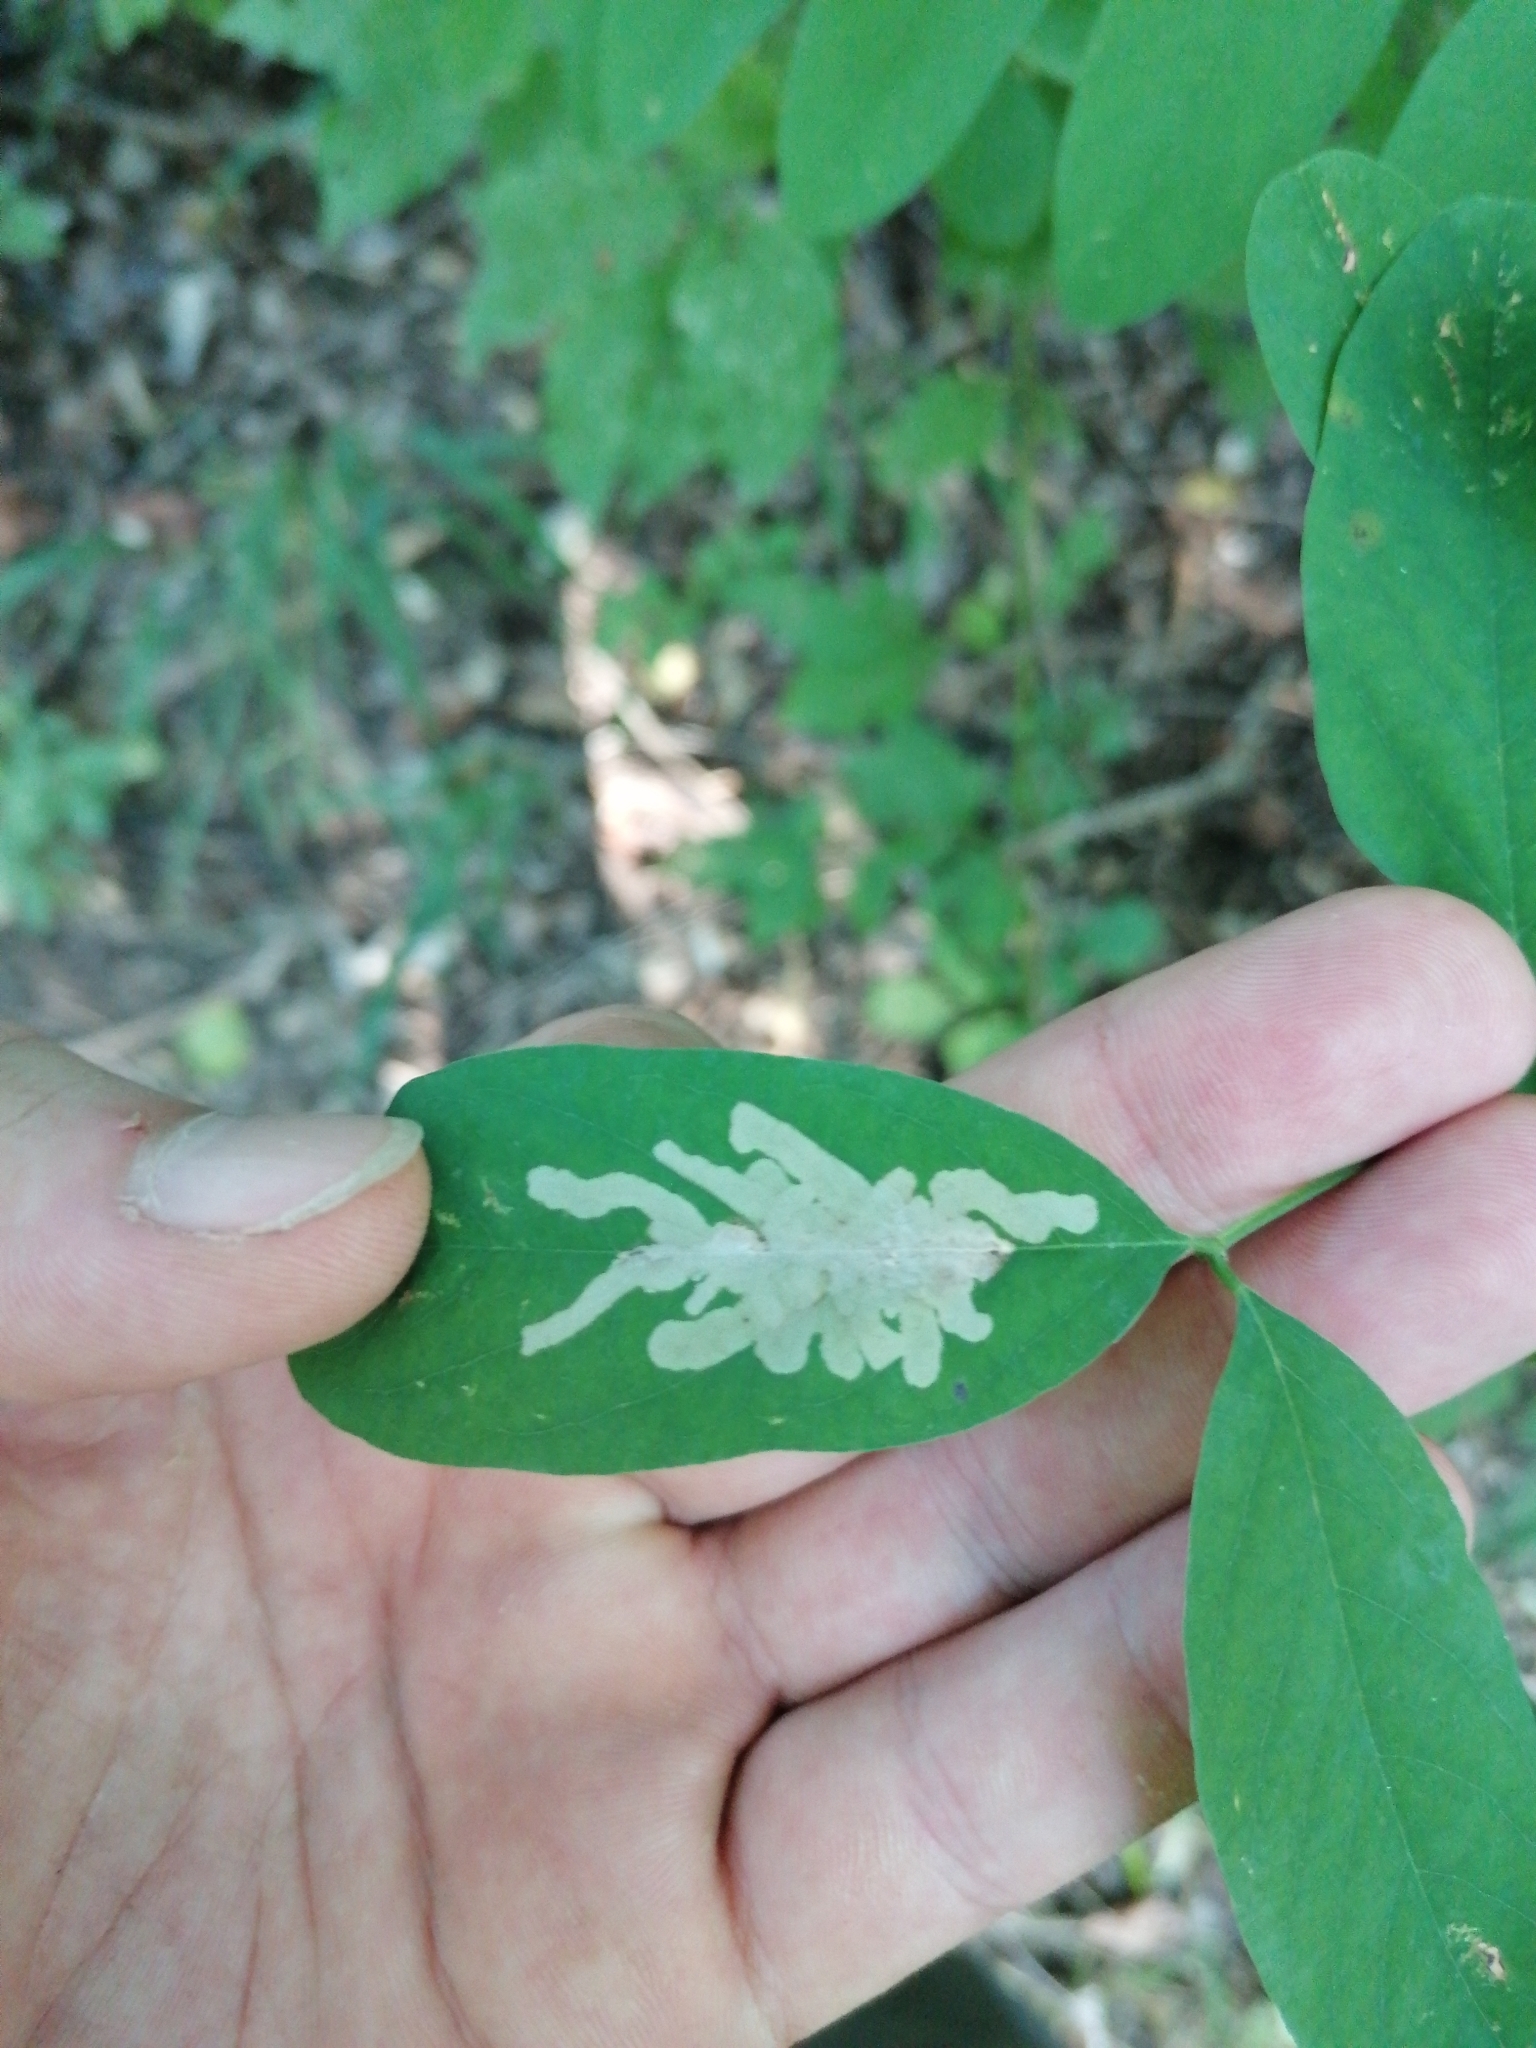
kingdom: Animalia
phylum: Arthropoda
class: Insecta
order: Lepidoptera
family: Gracillariidae
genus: Parectopa
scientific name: Parectopa robiniella
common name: Locust digitate leafminer
